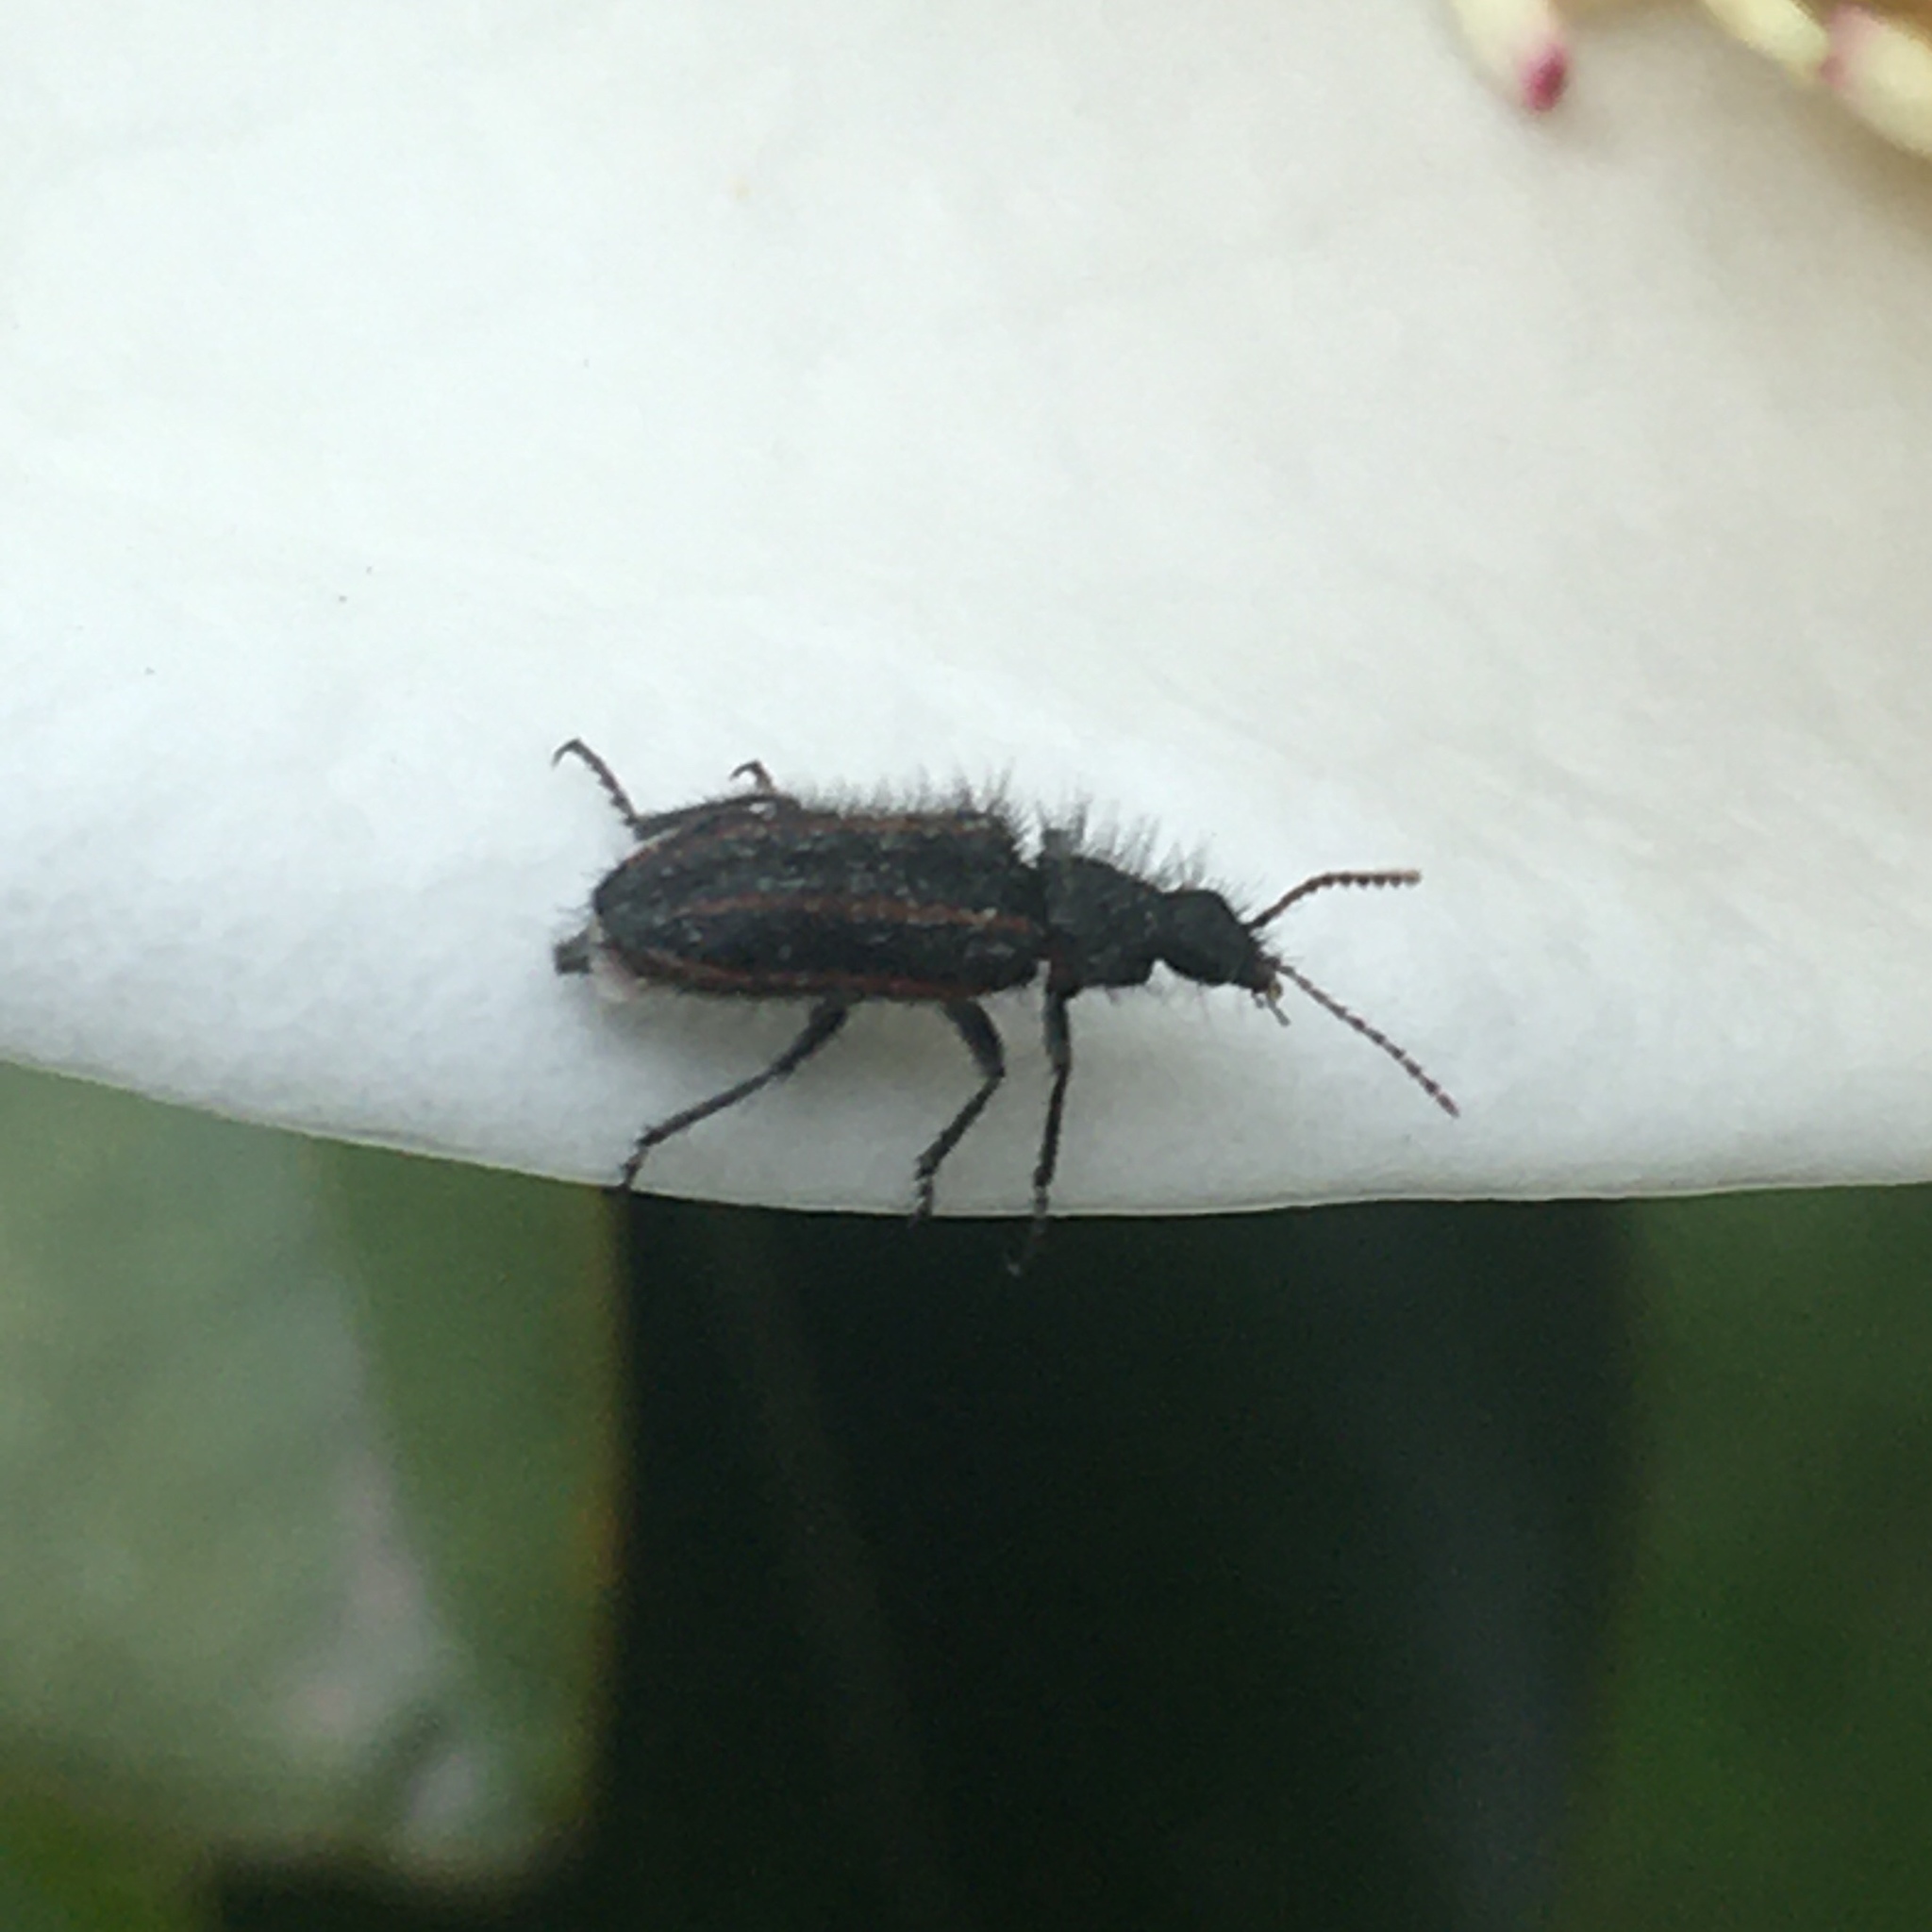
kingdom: Animalia
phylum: Arthropoda
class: Insecta
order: Coleoptera
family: Melyridae
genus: Astylus
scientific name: Astylus
